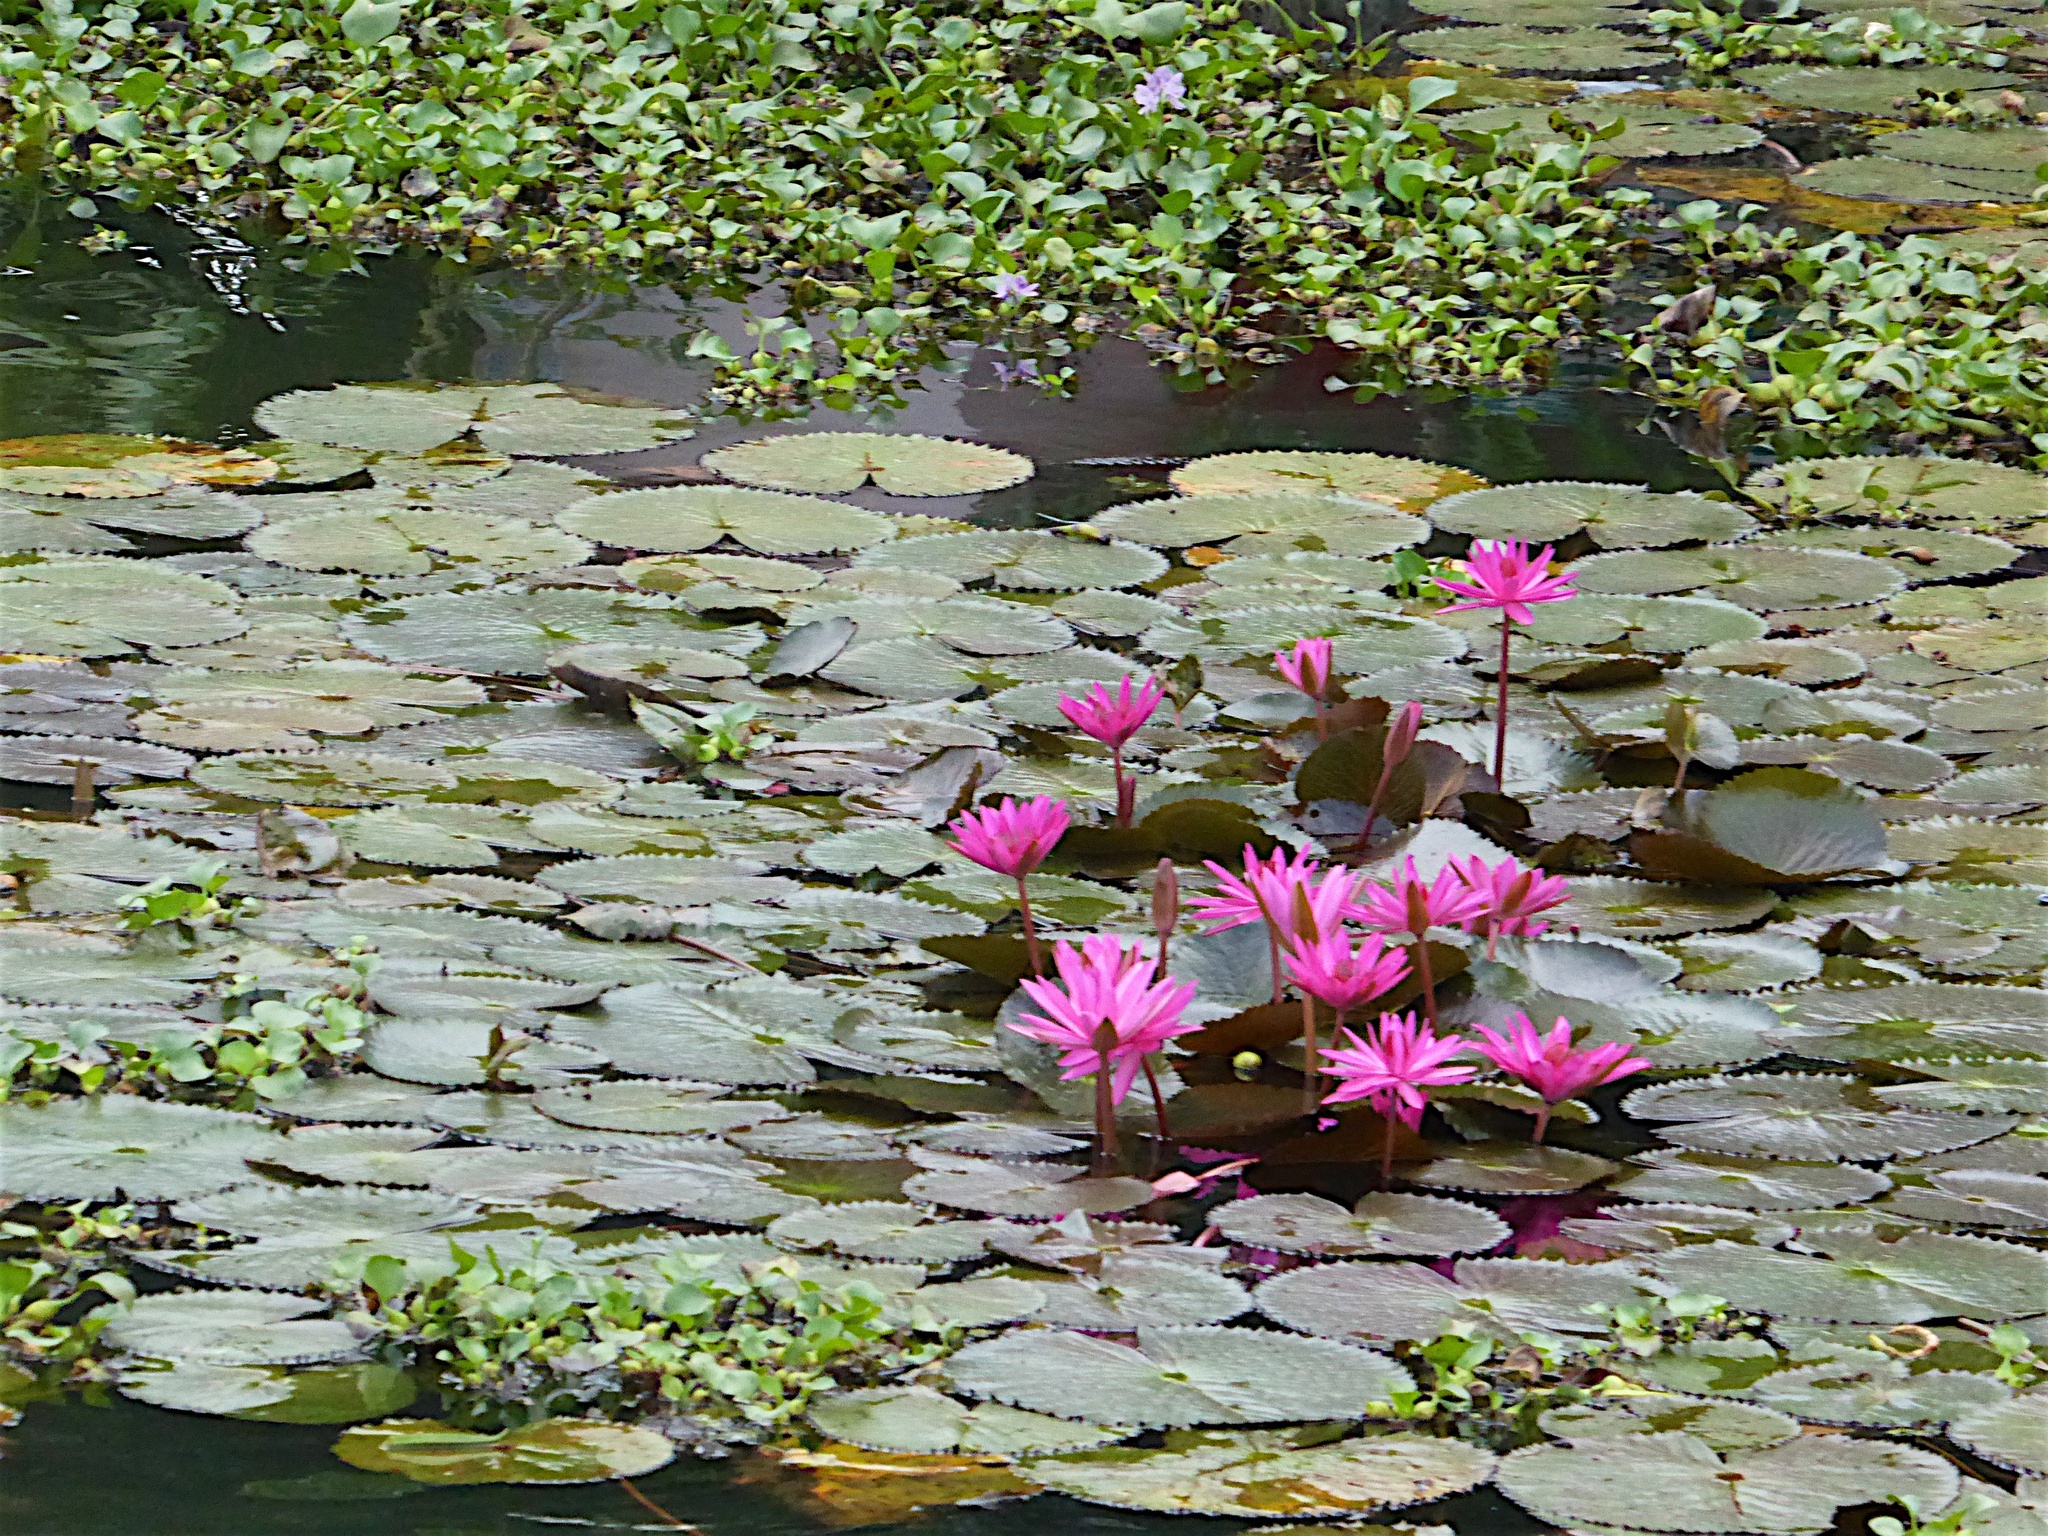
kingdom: Plantae
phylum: Tracheophyta
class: Magnoliopsida
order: Nymphaeales
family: Nymphaeaceae
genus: Nymphaea
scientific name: Nymphaea rubra
